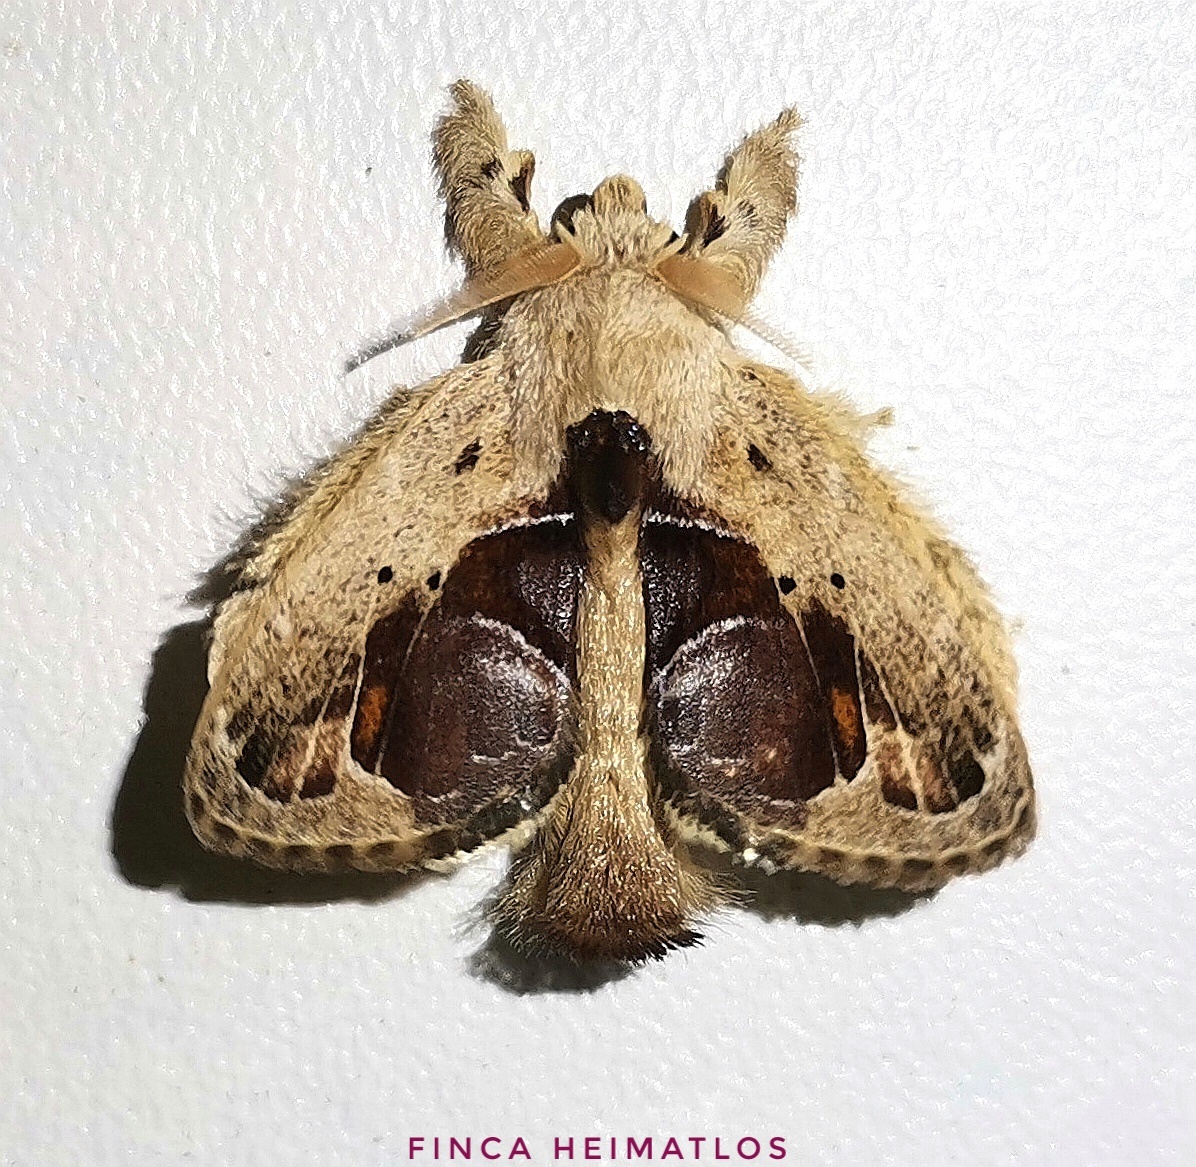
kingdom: Animalia
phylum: Arthropoda
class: Insecta
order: Lepidoptera
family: Lasiocampidae
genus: Nesara
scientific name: Nesara
